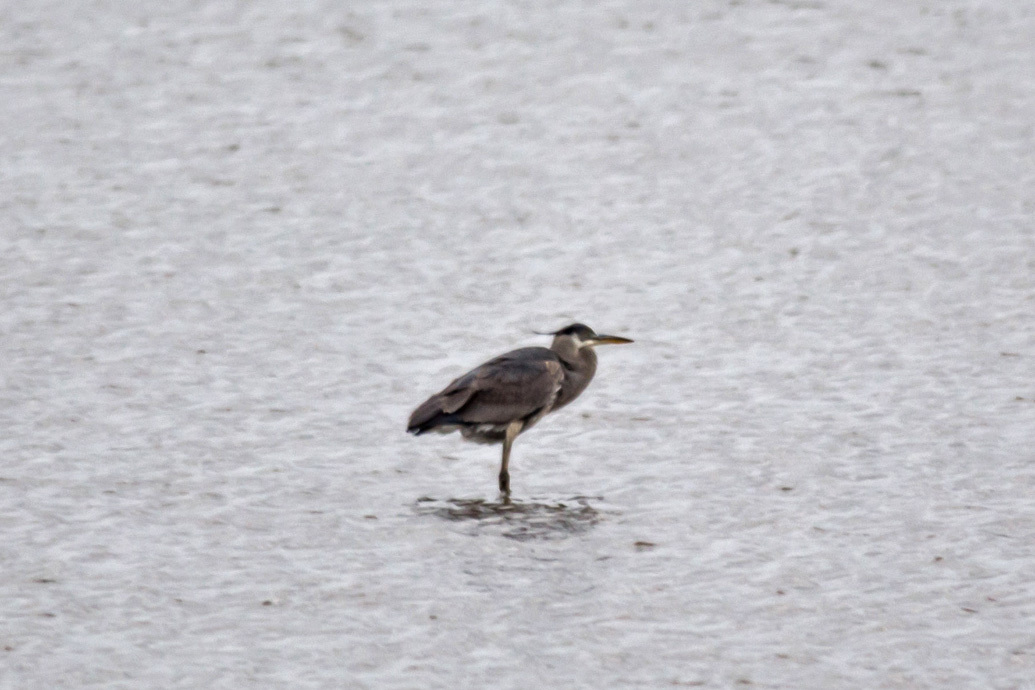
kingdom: Animalia
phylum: Chordata
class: Aves
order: Pelecaniformes
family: Ardeidae
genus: Ardea
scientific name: Ardea herodias
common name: Great blue heron
